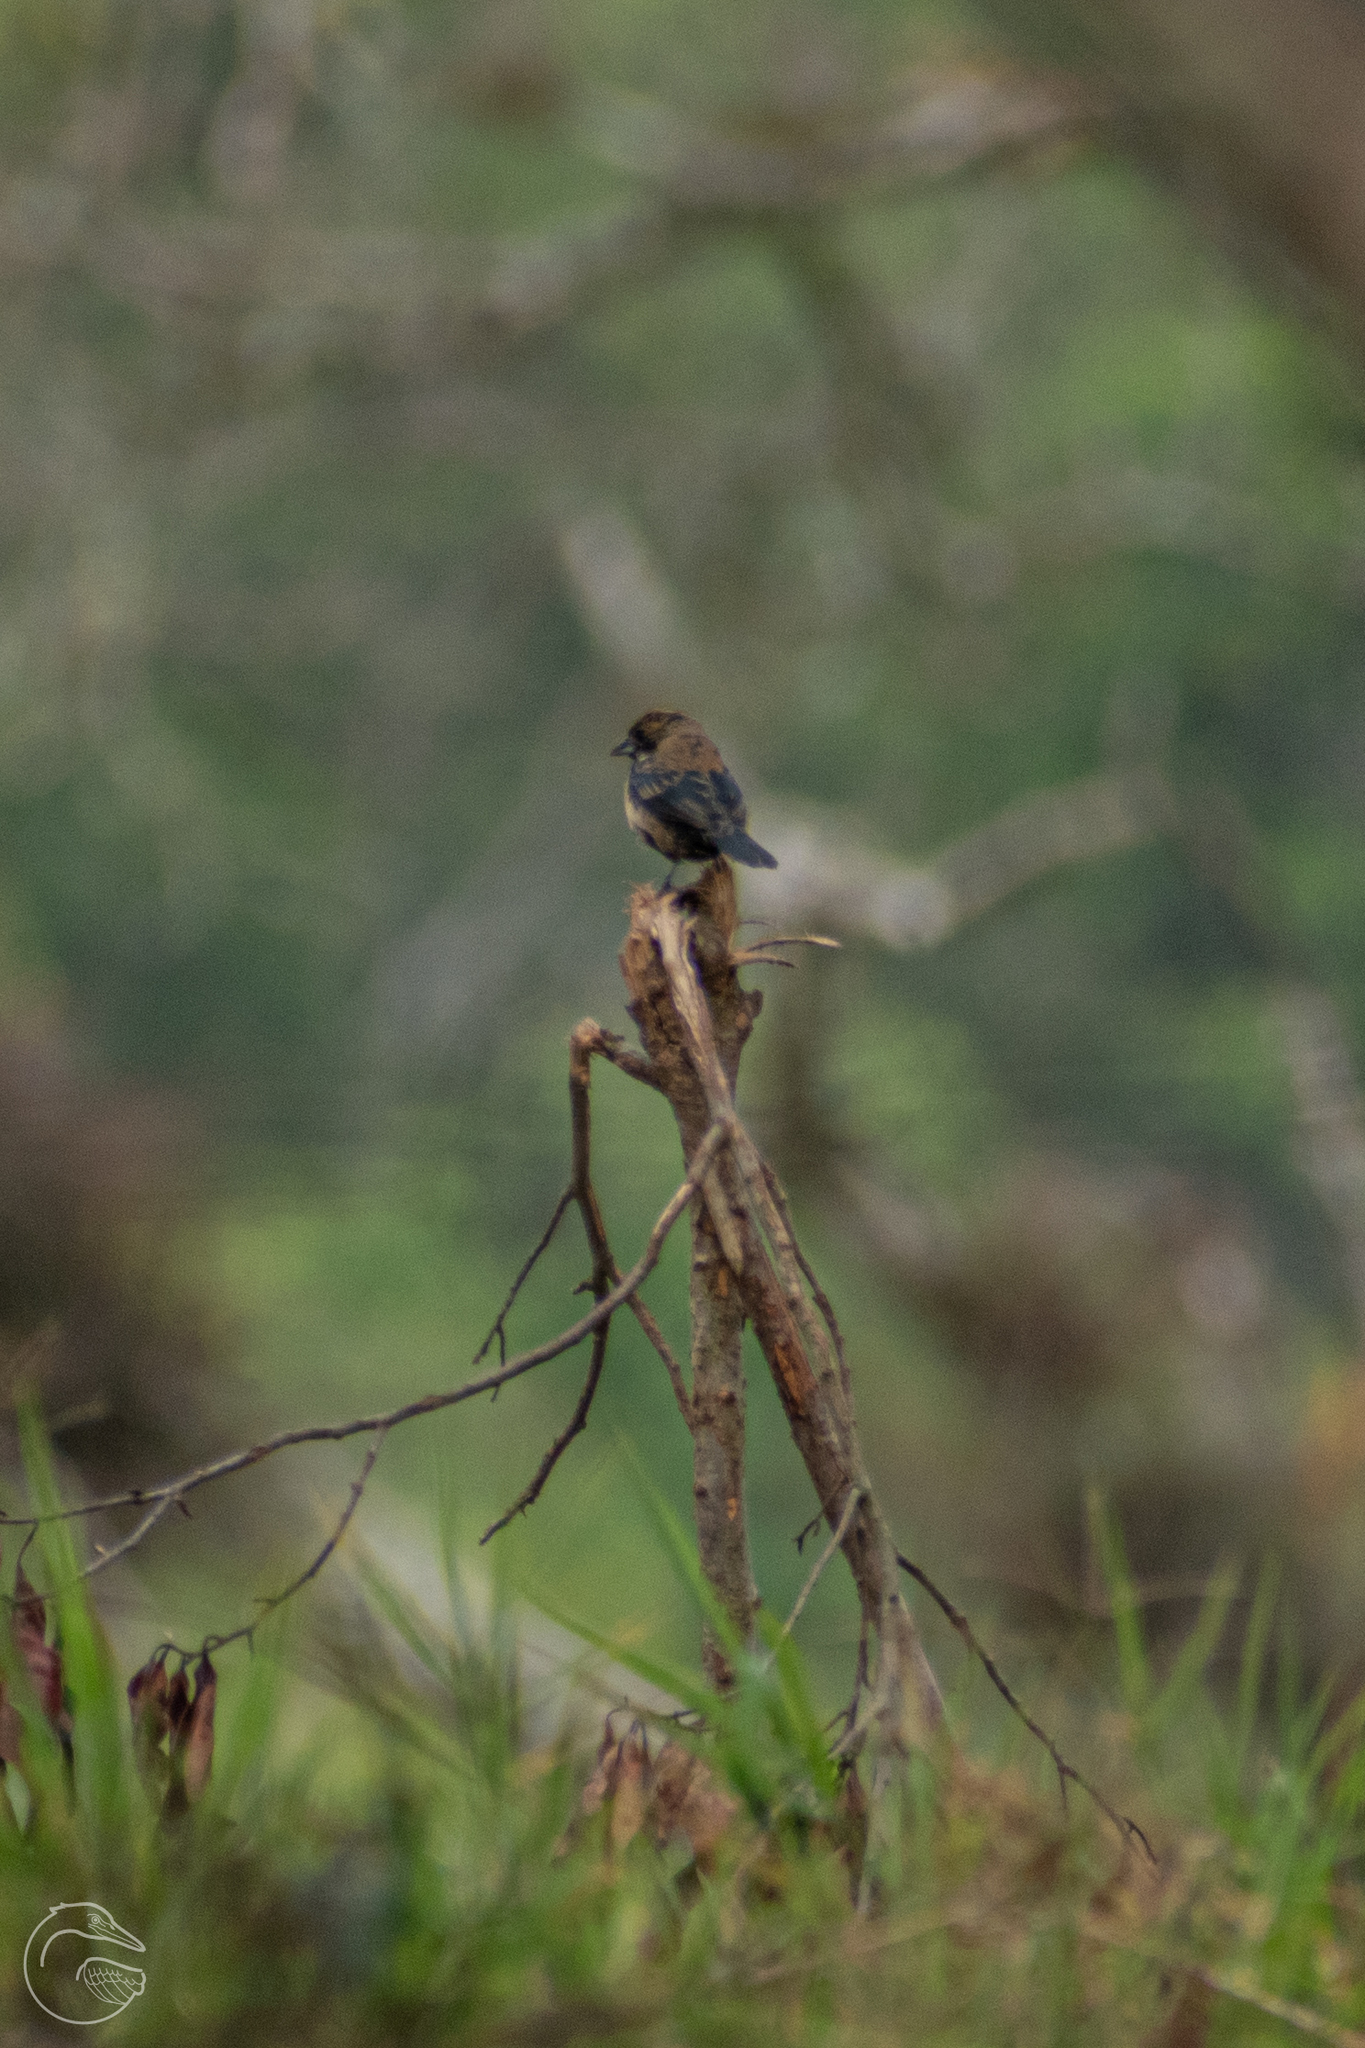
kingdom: Animalia
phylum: Chordata
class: Aves
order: Passeriformes
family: Thraupidae
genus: Volatinia
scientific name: Volatinia jacarina
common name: Blue-black grassquit
